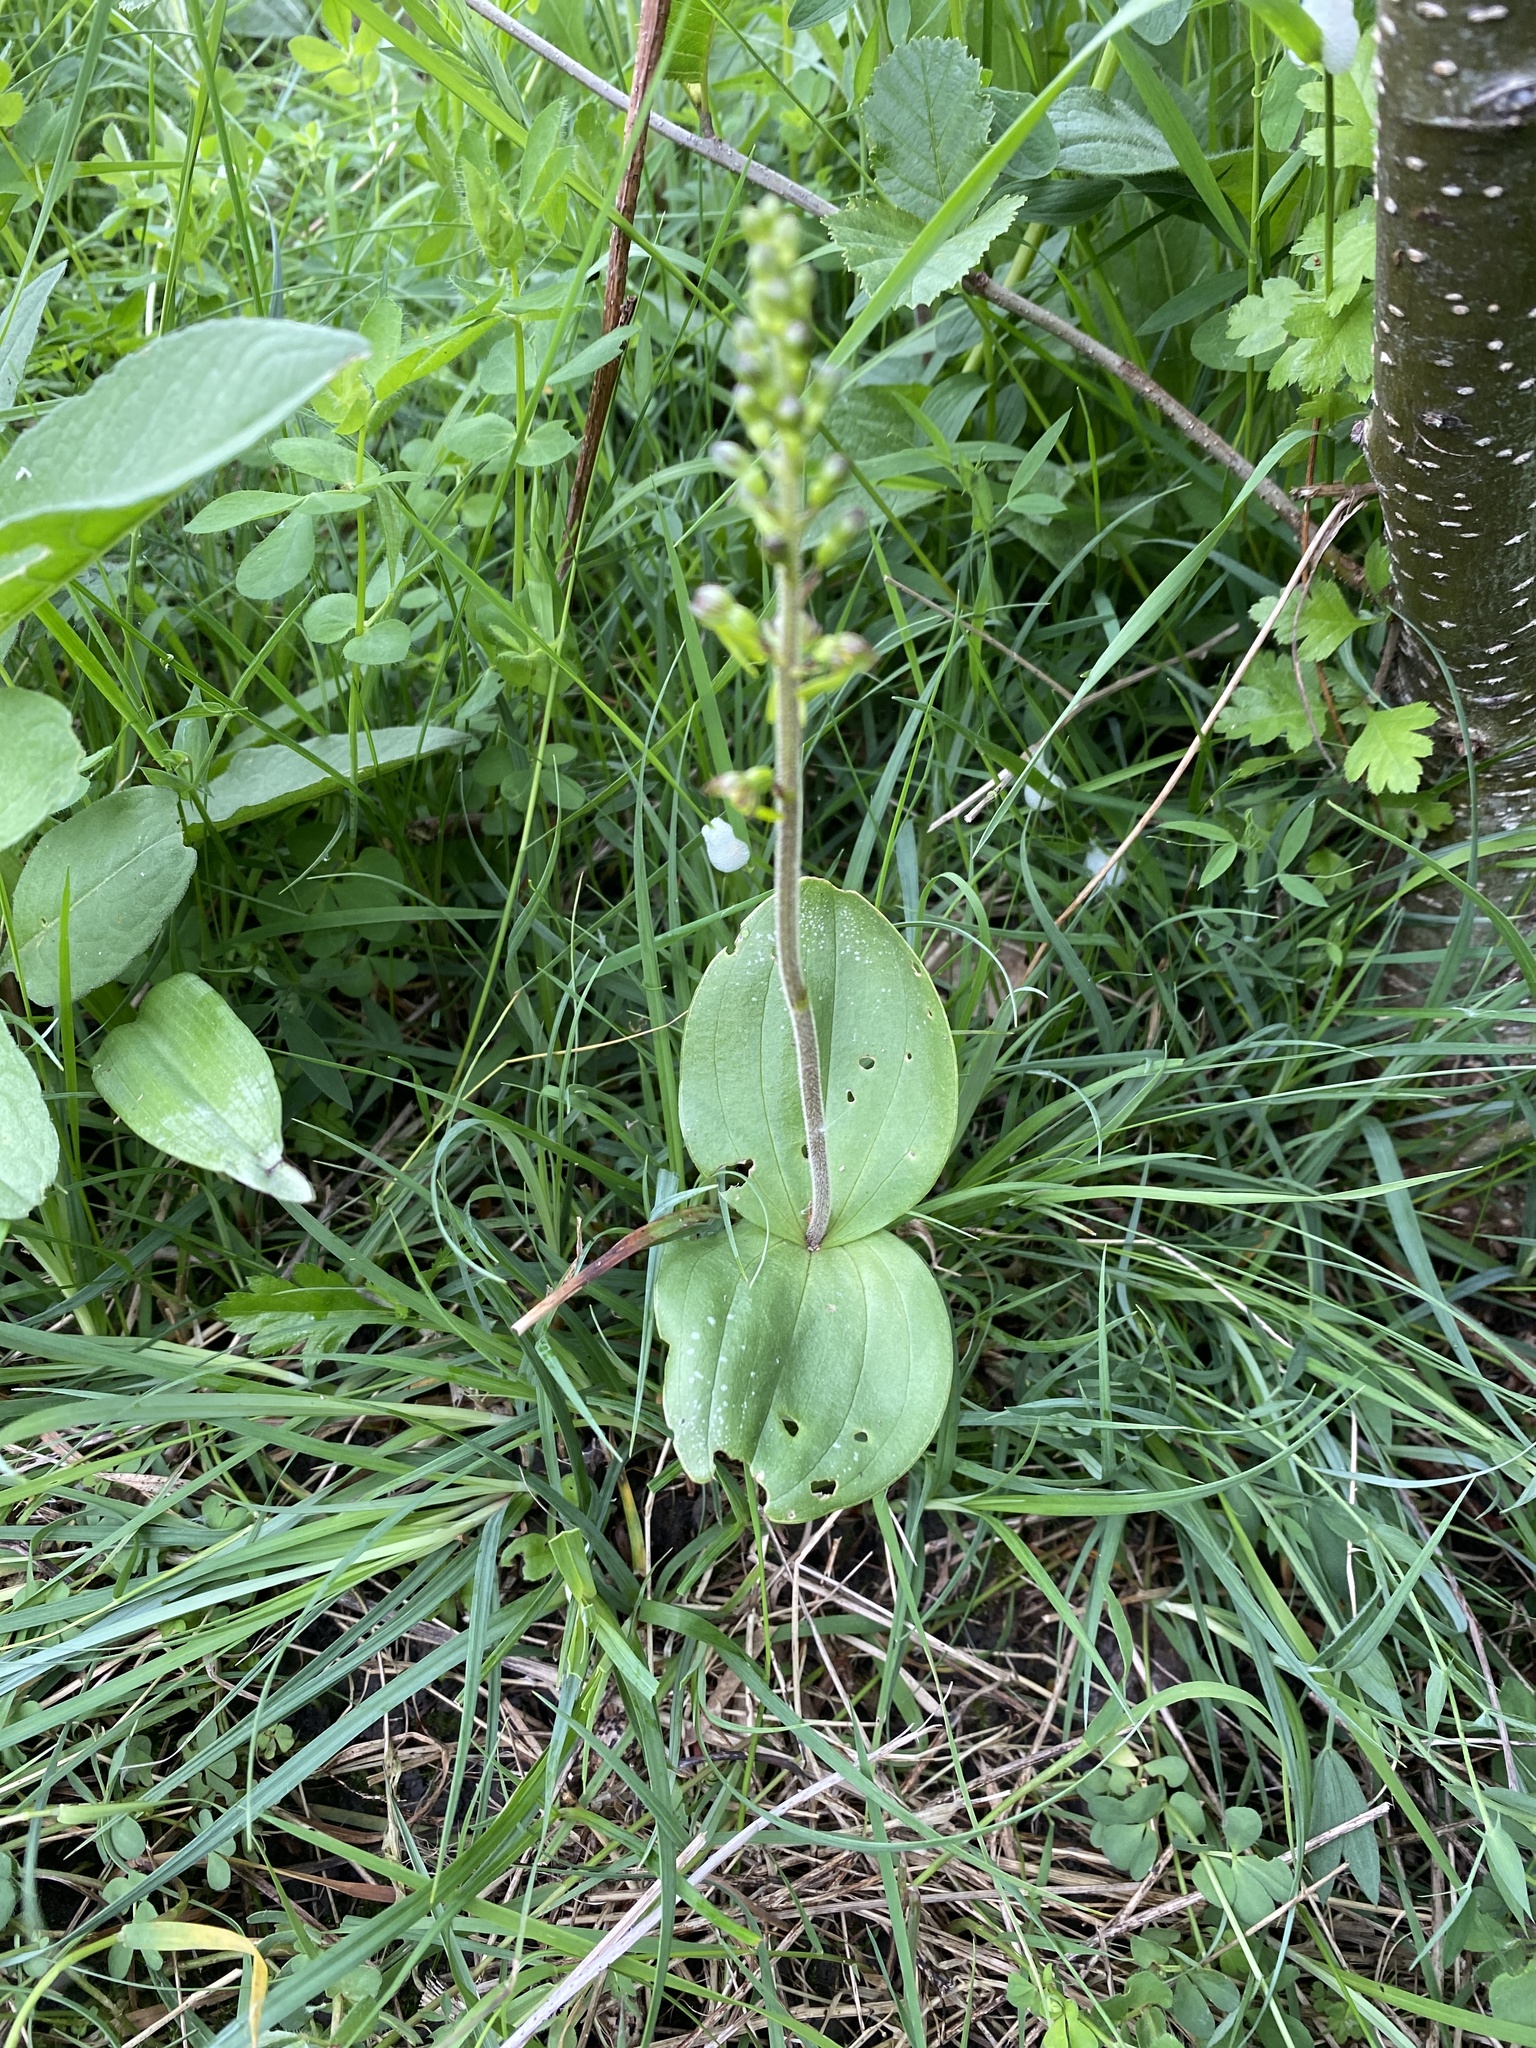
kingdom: Plantae
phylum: Tracheophyta
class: Liliopsida
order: Asparagales
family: Orchidaceae
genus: Neottia
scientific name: Neottia ovata
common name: Common twayblade
